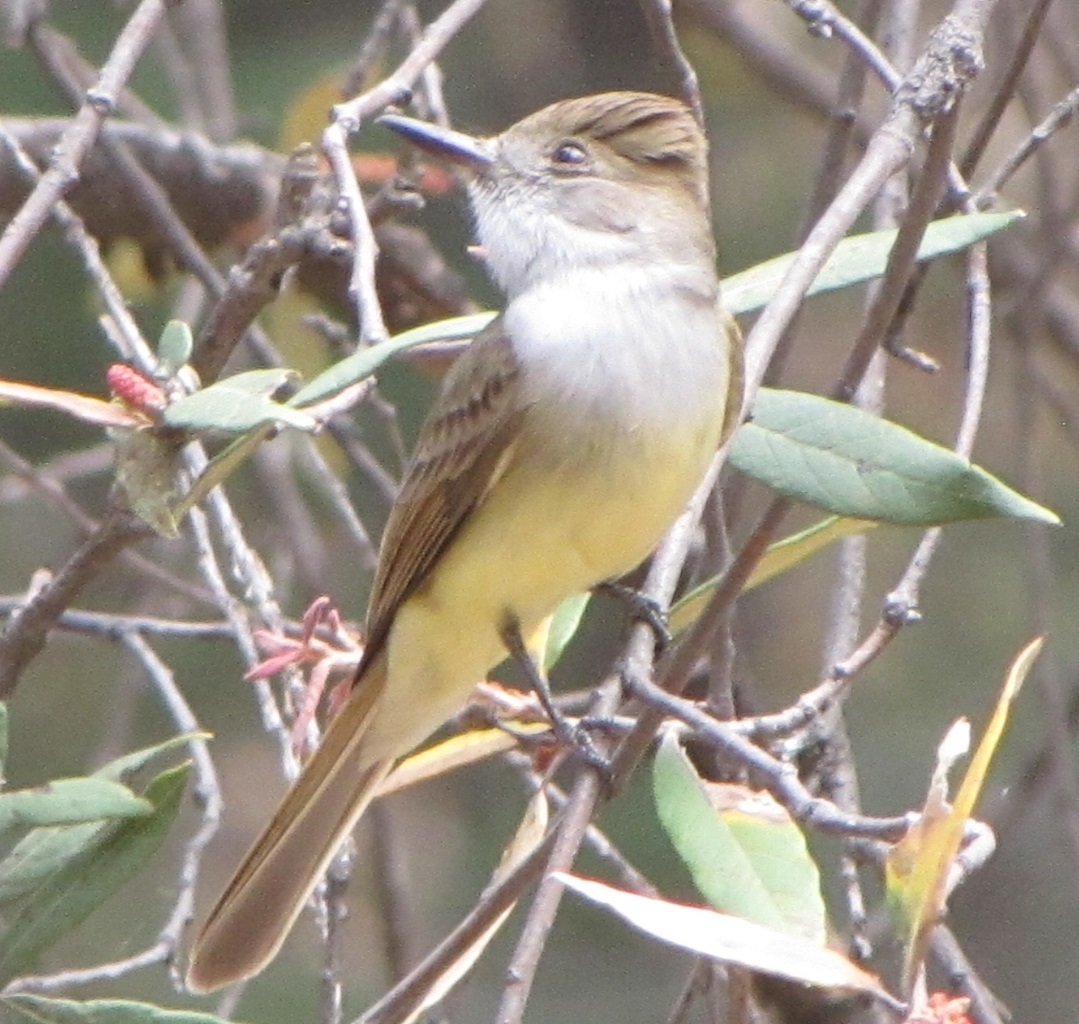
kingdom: Animalia
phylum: Chordata
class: Aves
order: Passeriformes
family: Tyrannidae
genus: Myiarchus
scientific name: Myiarchus tuberculifer
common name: Dusky-capped flycatcher
